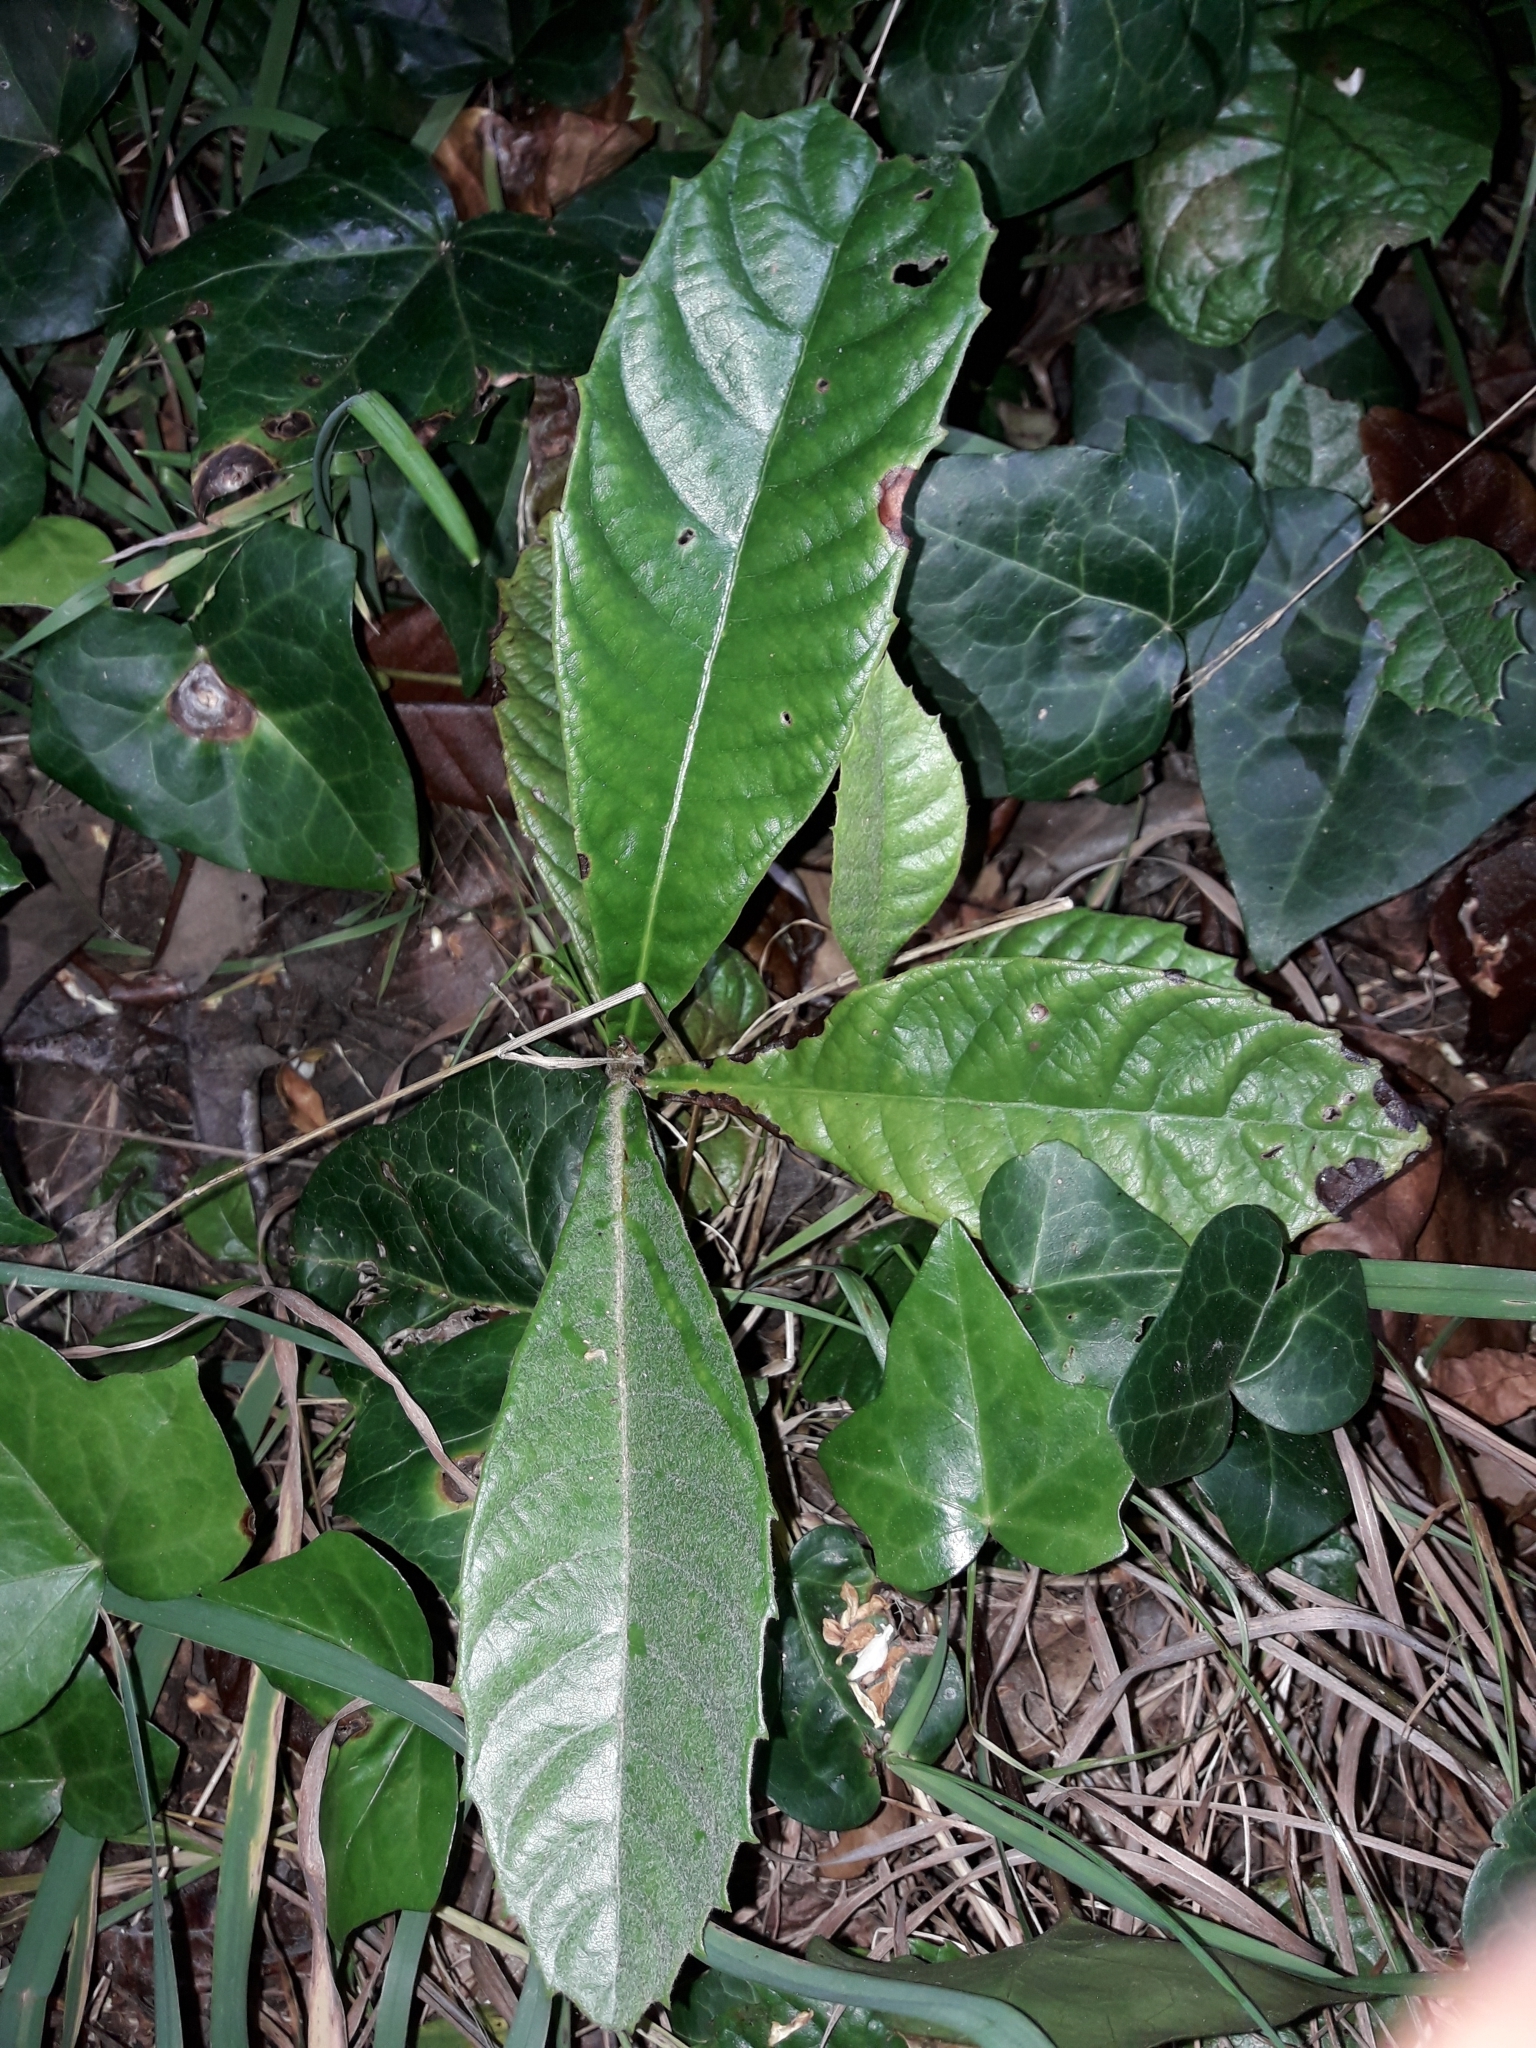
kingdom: Plantae
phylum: Tracheophyta
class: Magnoliopsida
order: Rosales
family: Rosaceae
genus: Rhaphiolepis
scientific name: Rhaphiolepis bibas
